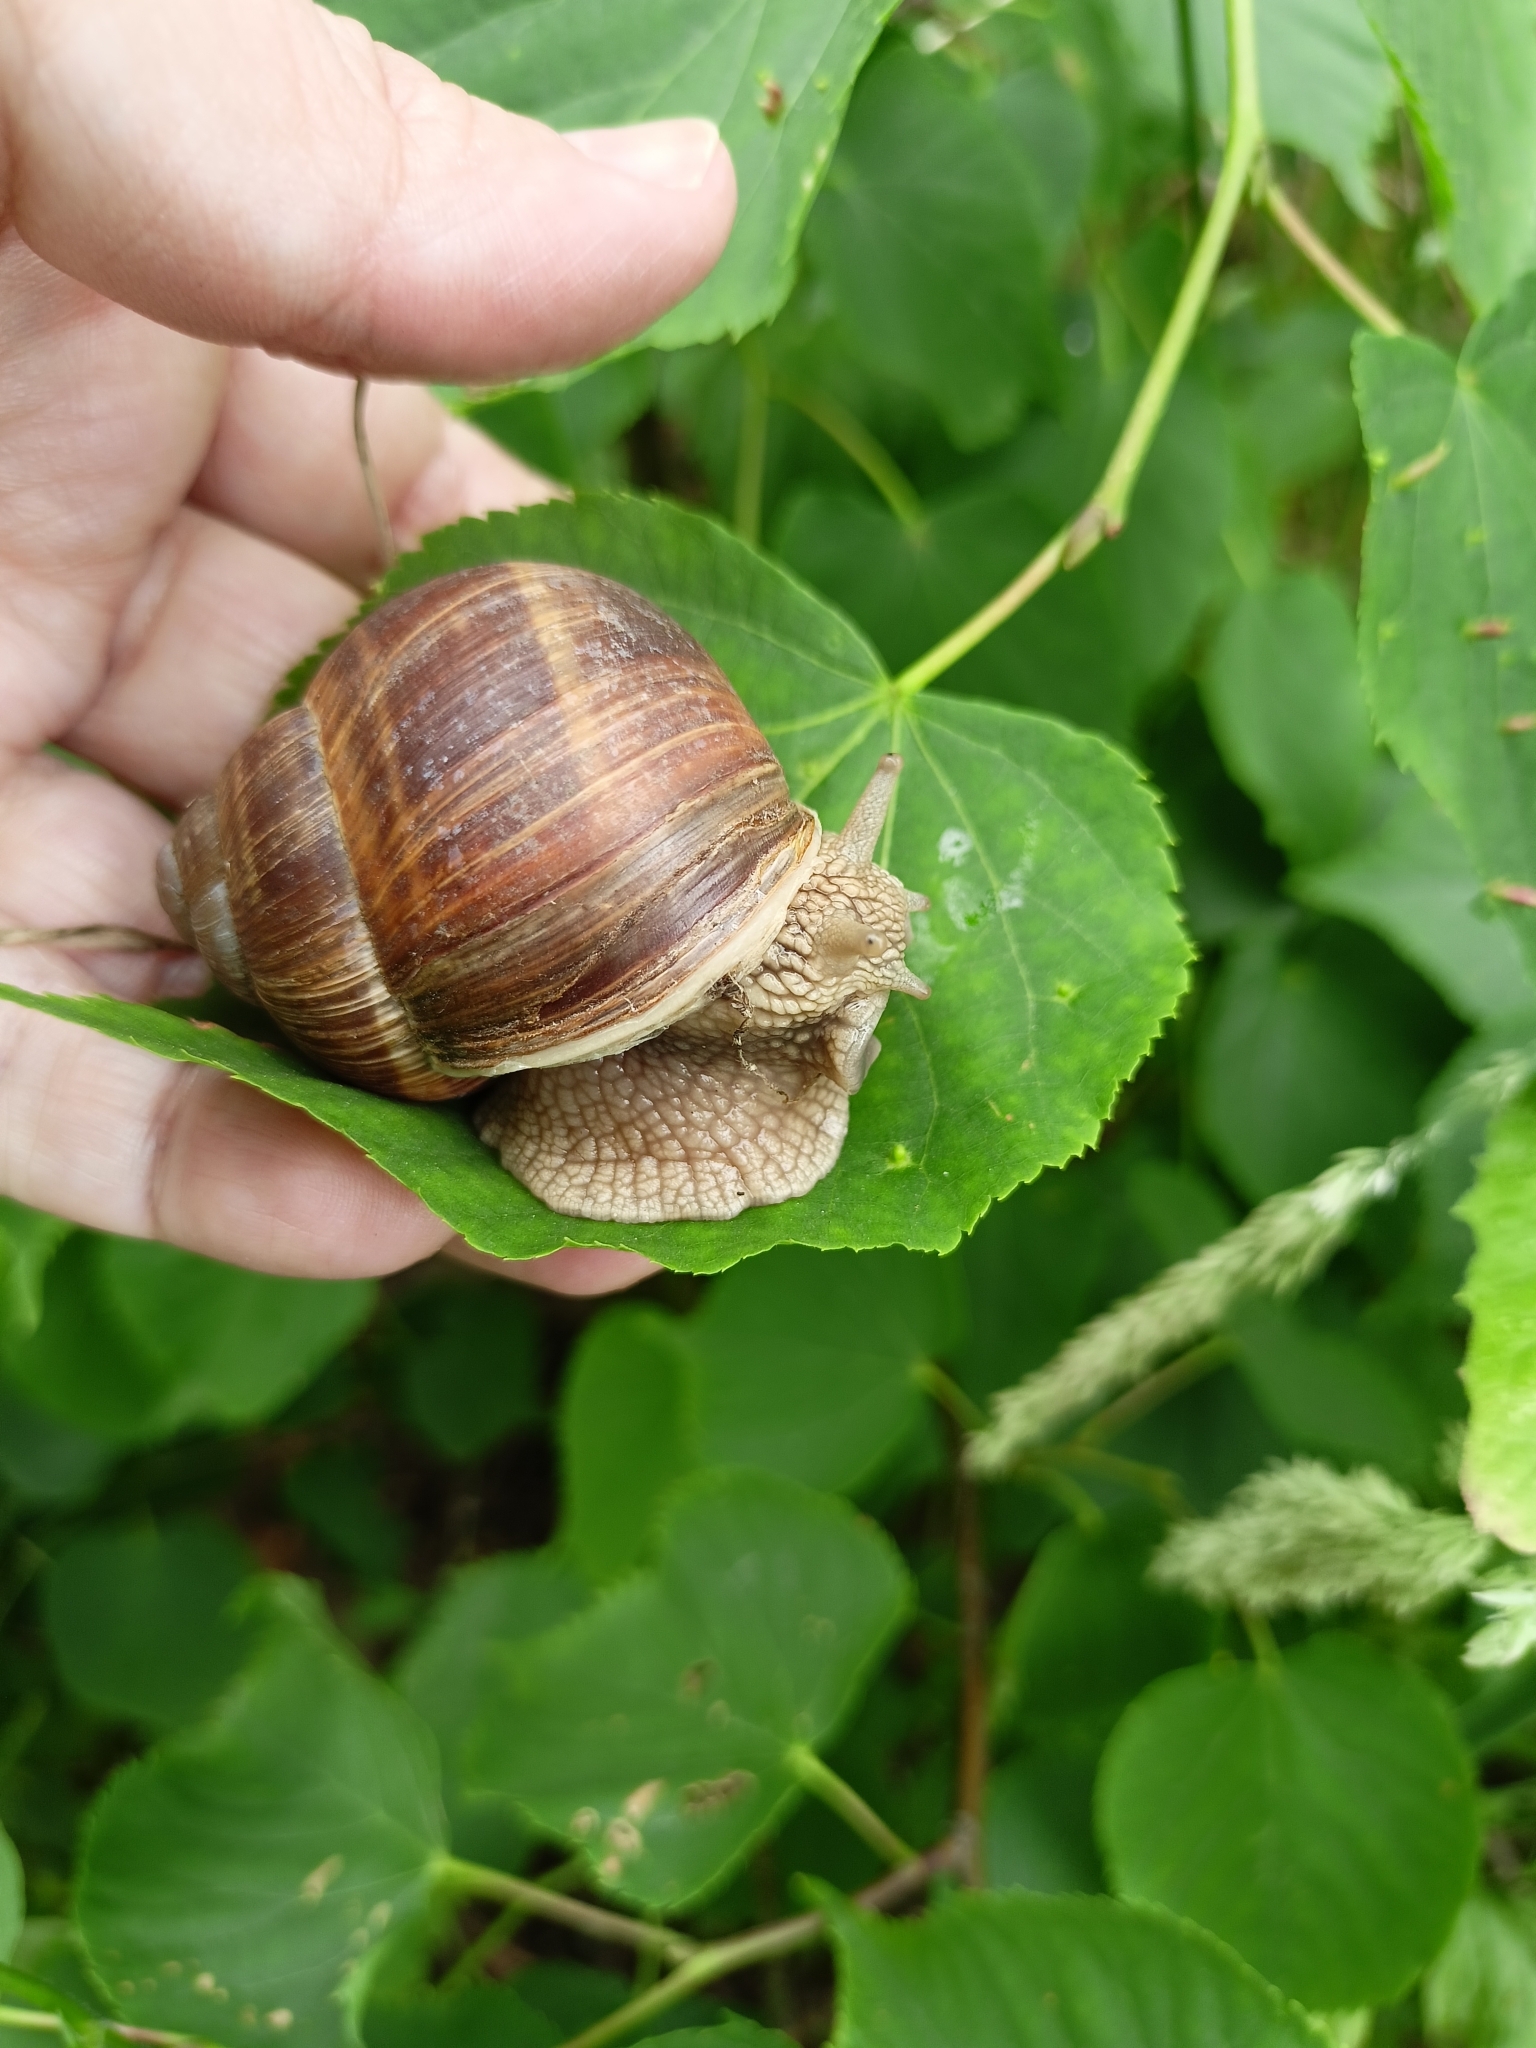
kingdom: Animalia
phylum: Mollusca
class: Gastropoda
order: Stylommatophora
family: Helicidae
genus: Helix
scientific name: Helix pomatia
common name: Roman snail
